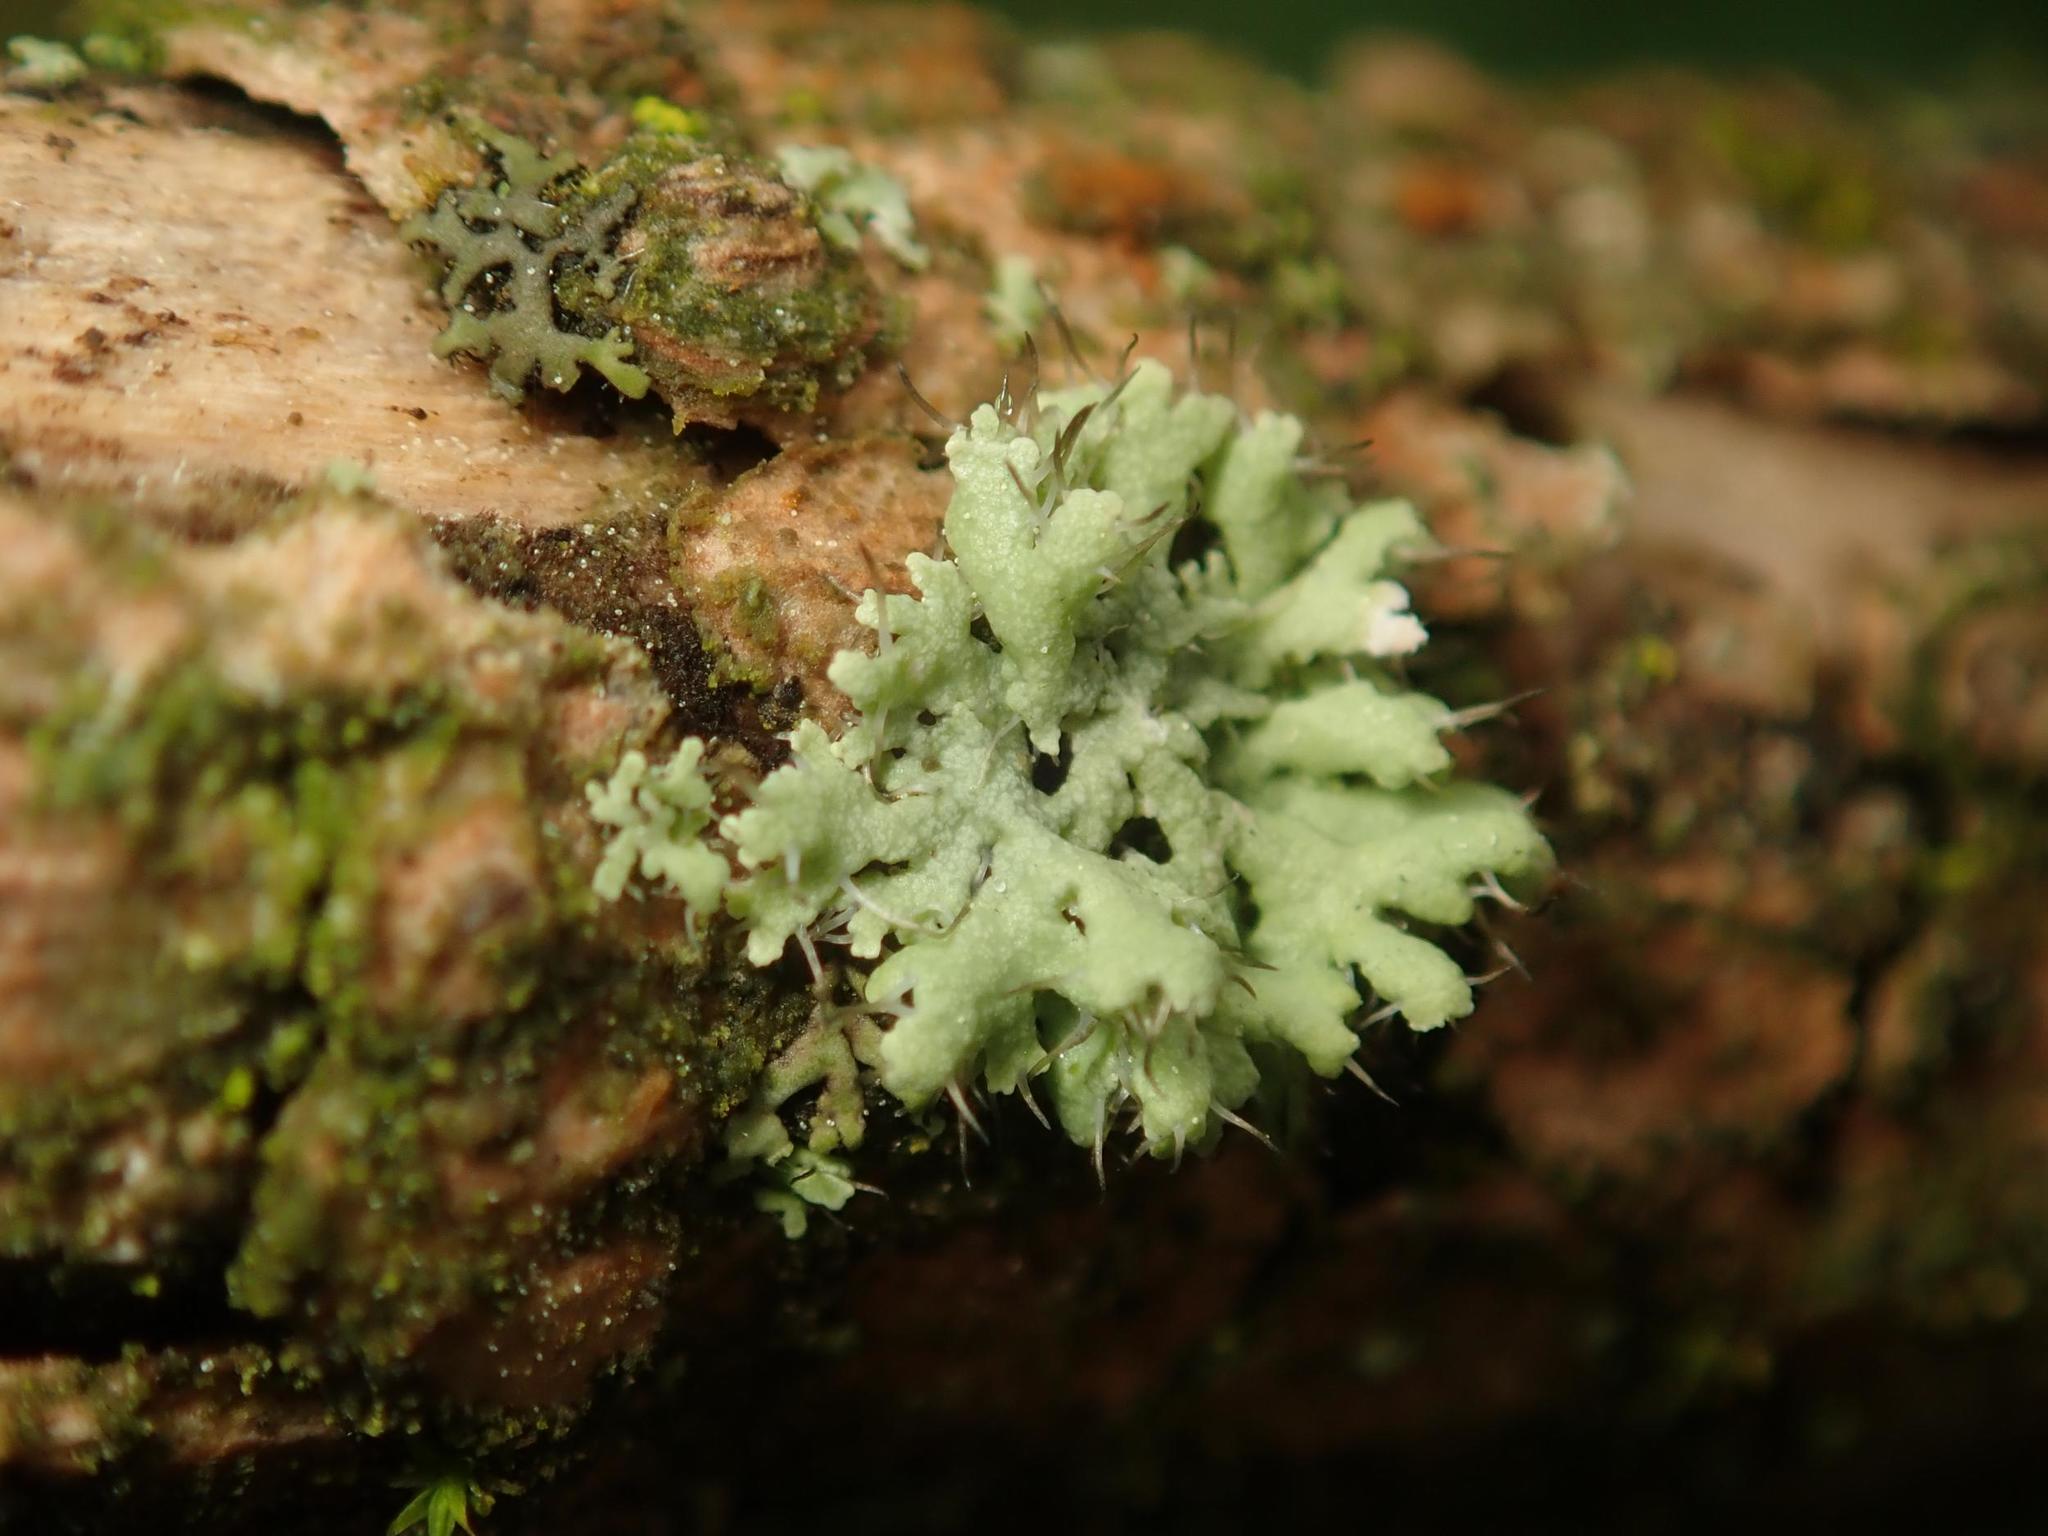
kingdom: Fungi
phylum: Ascomycota
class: Lecanoromycetes
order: Caliciales
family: Physciaceae
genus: Physcia
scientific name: Physcia adscendens
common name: Hooded rosette lichen
